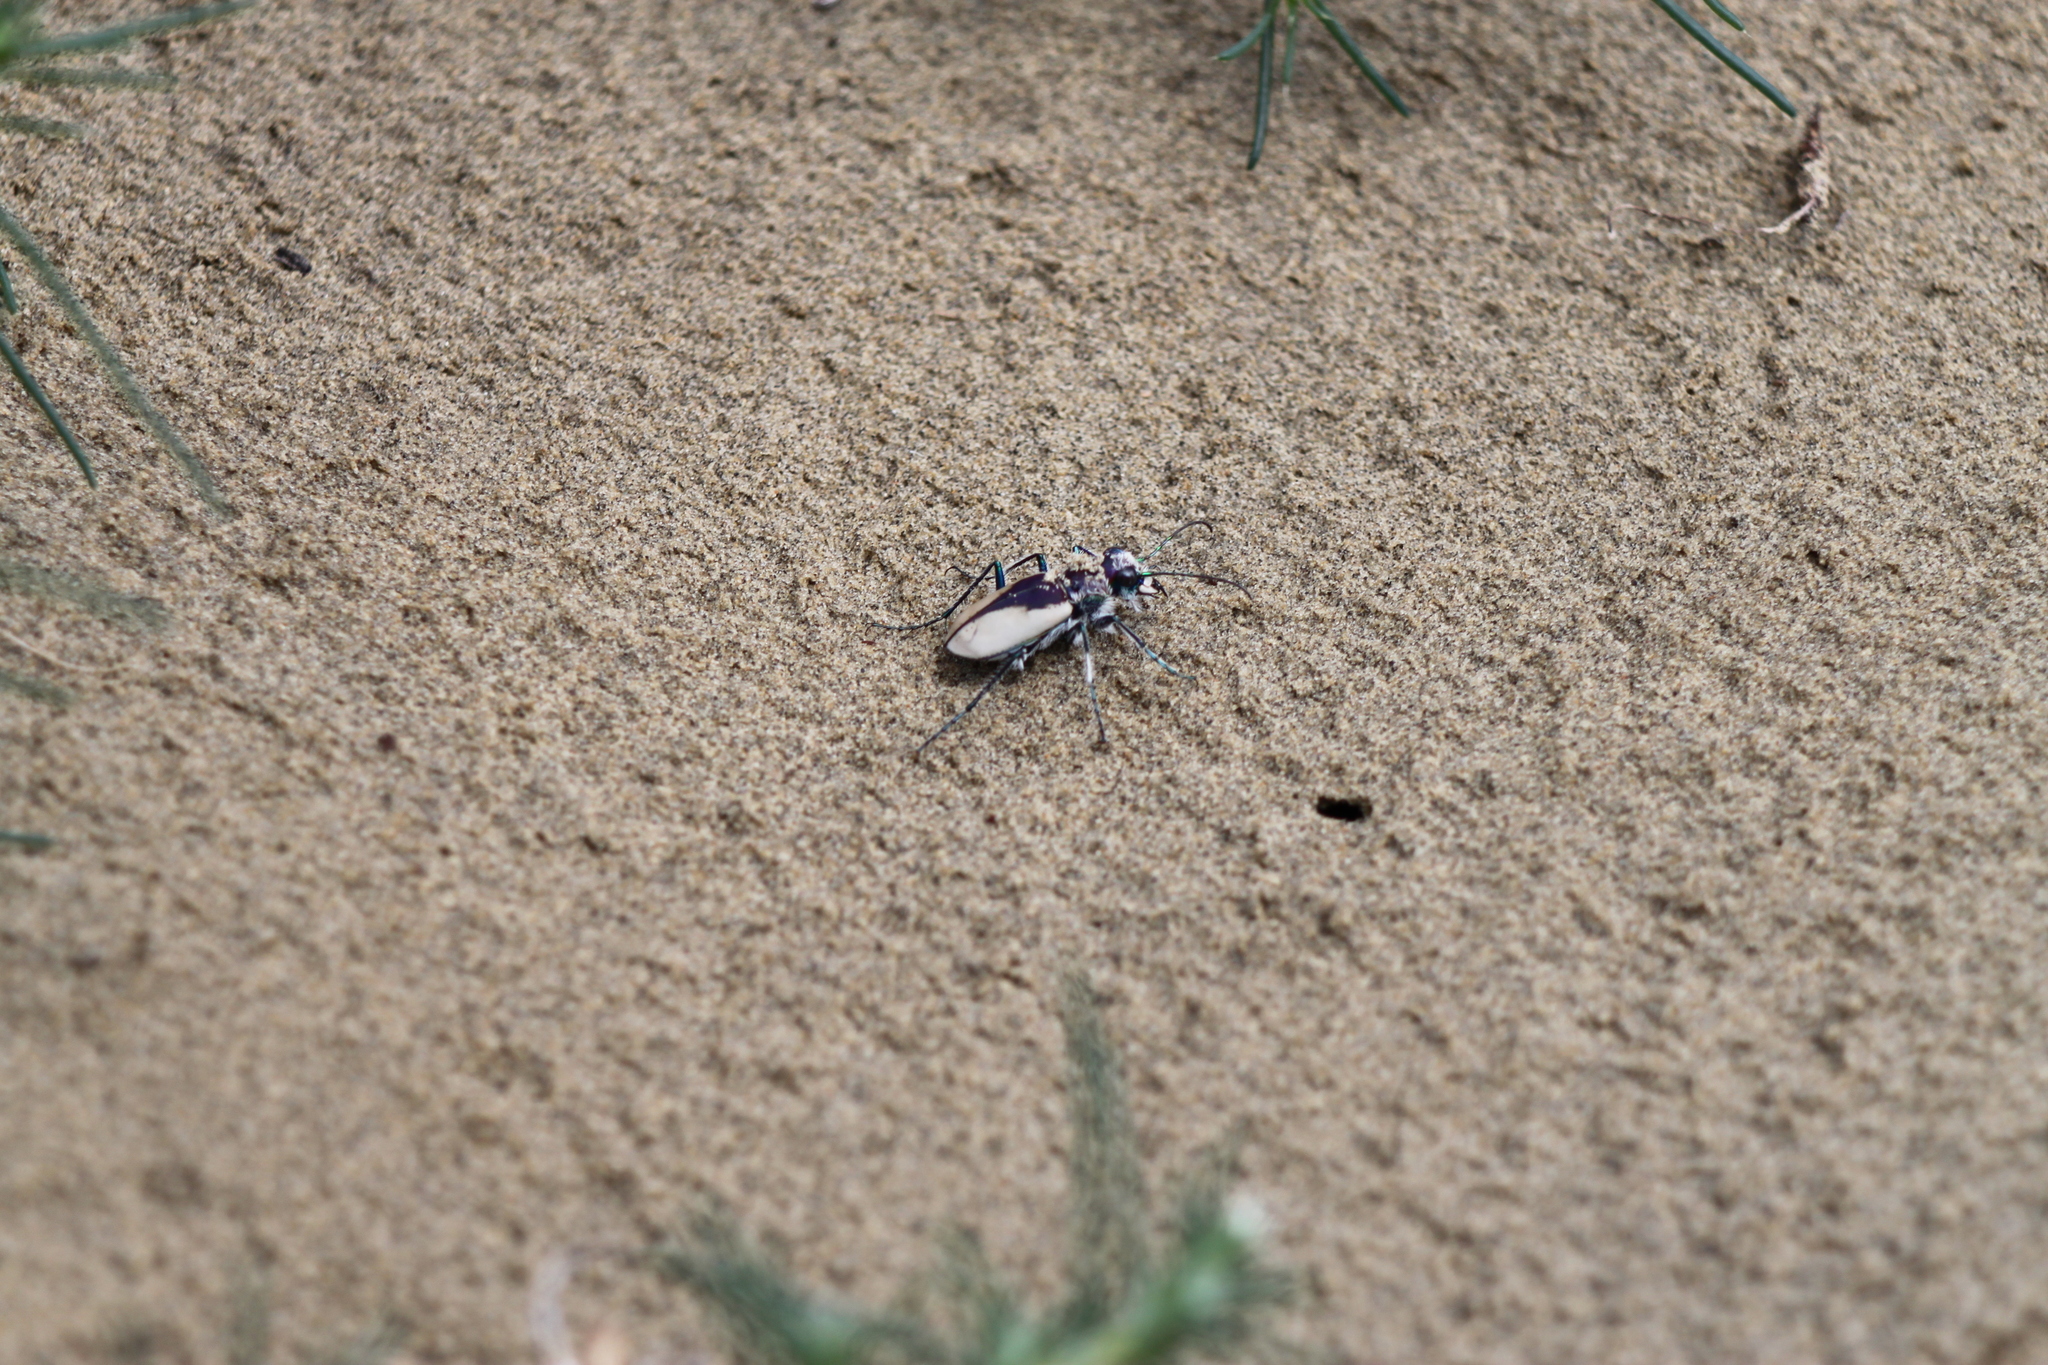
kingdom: Animalia
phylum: Arthropoda
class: Insecta
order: Coleoptera
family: Carabidae
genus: Cicindela
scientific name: Cicindela formosa
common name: Big sand tiger beetle
